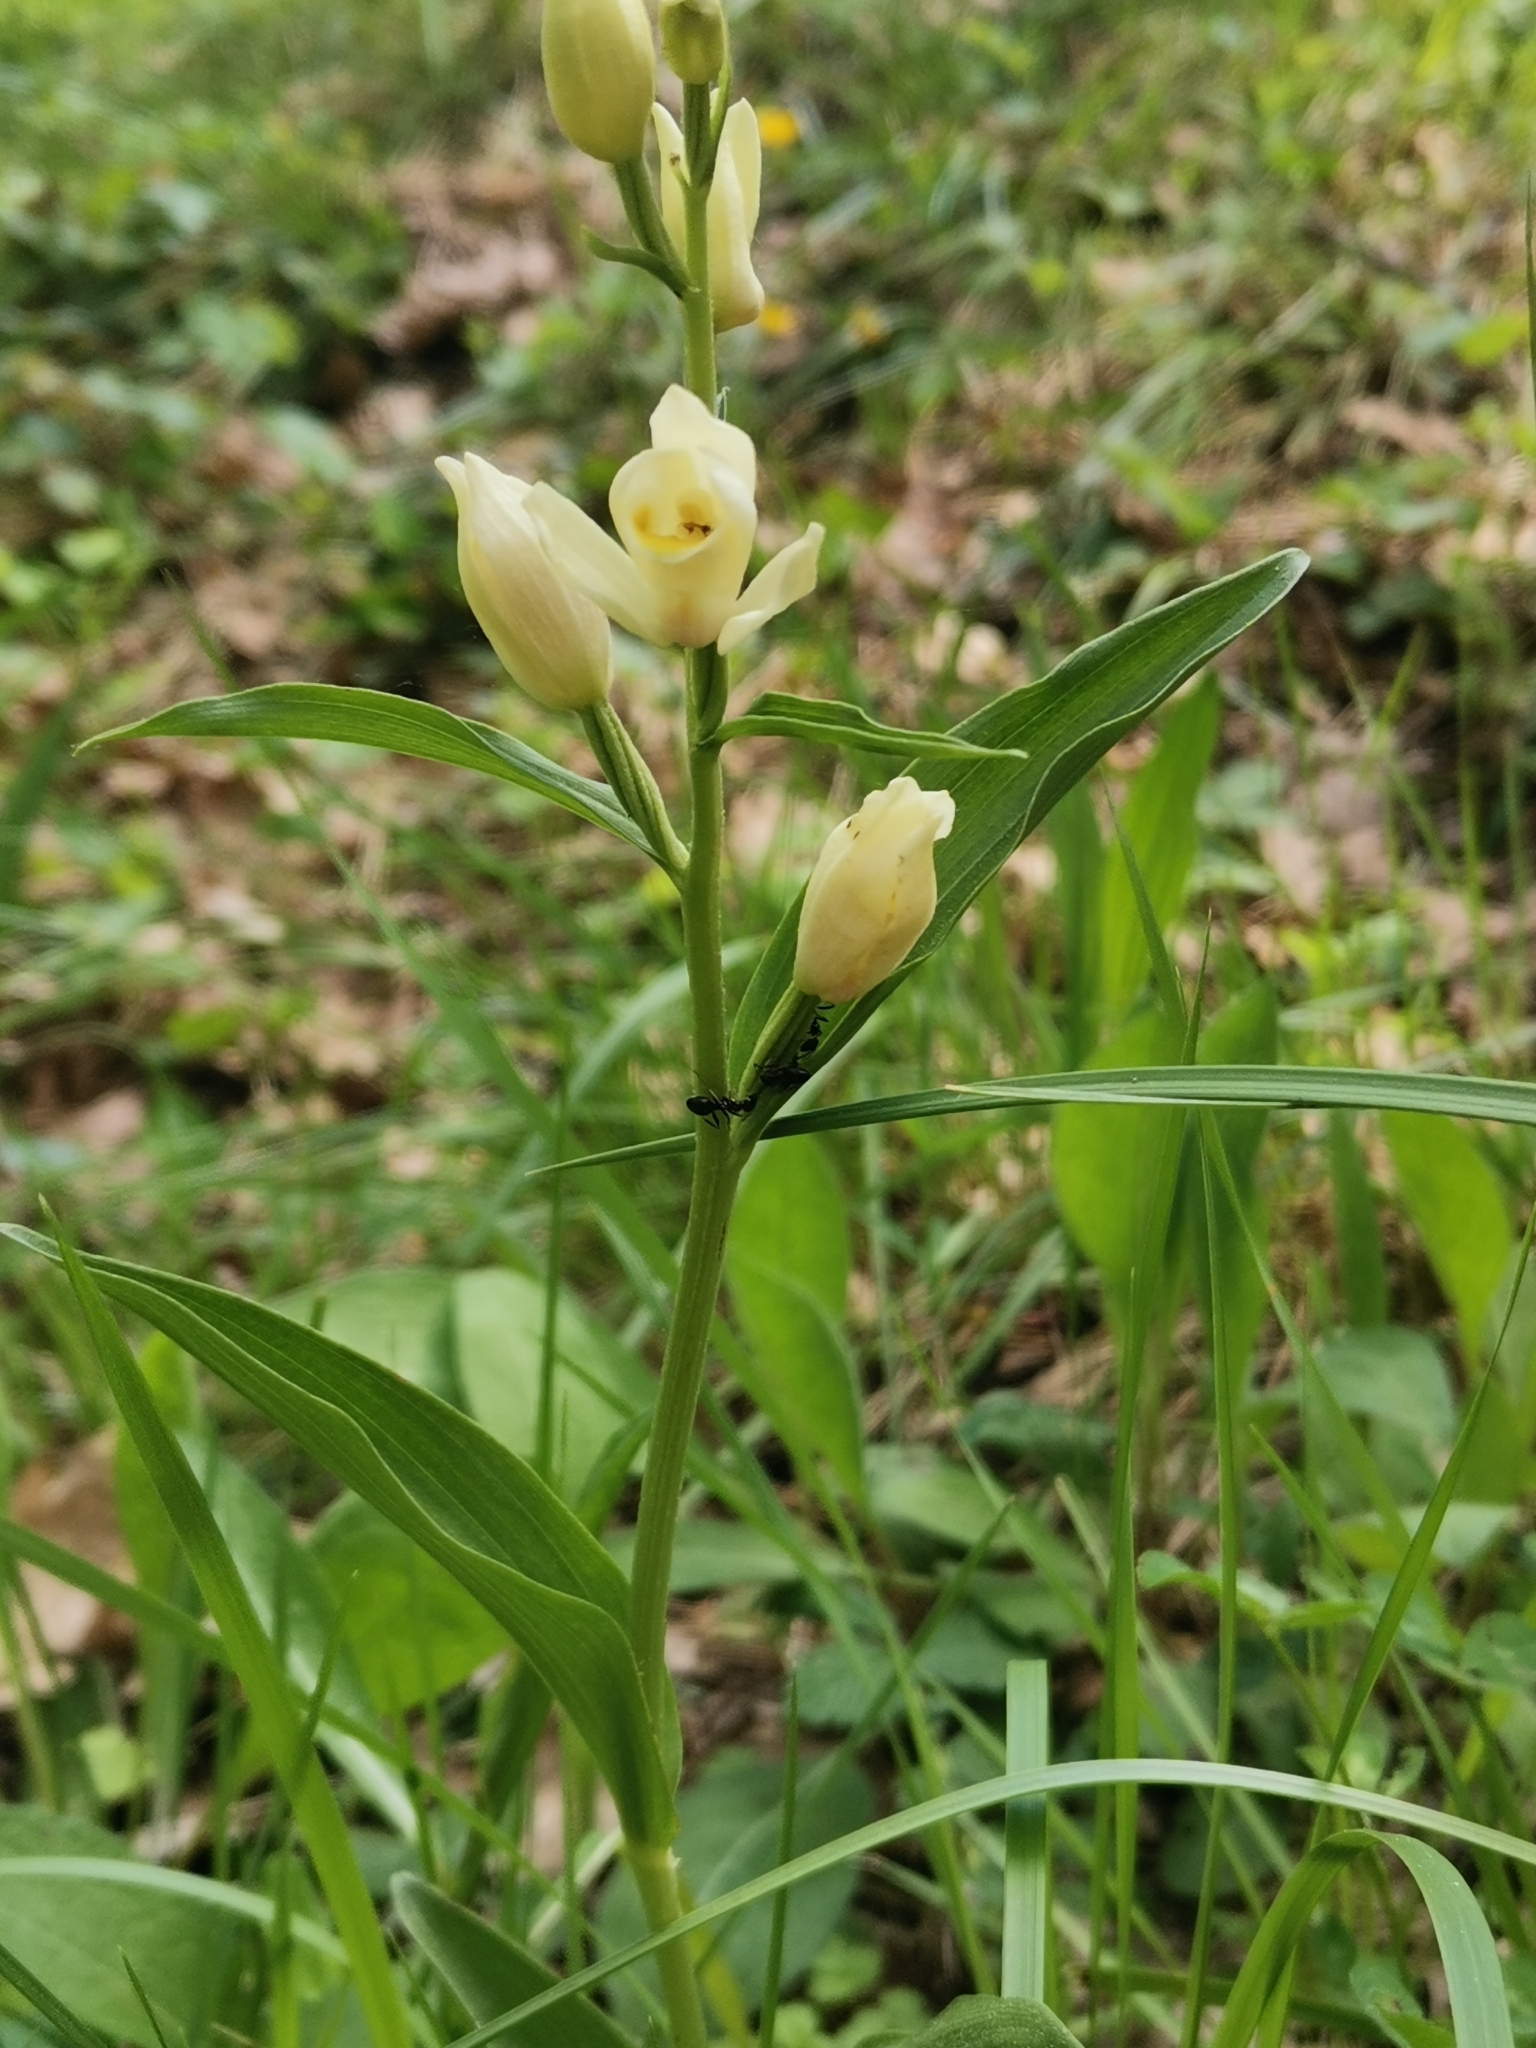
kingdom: Plantae
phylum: Tracheophyta
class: Liliopsida
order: Asparagales
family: Orchidaceae
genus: Cephalanthera
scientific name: Cephalanthera damasonium
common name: White helleborine
